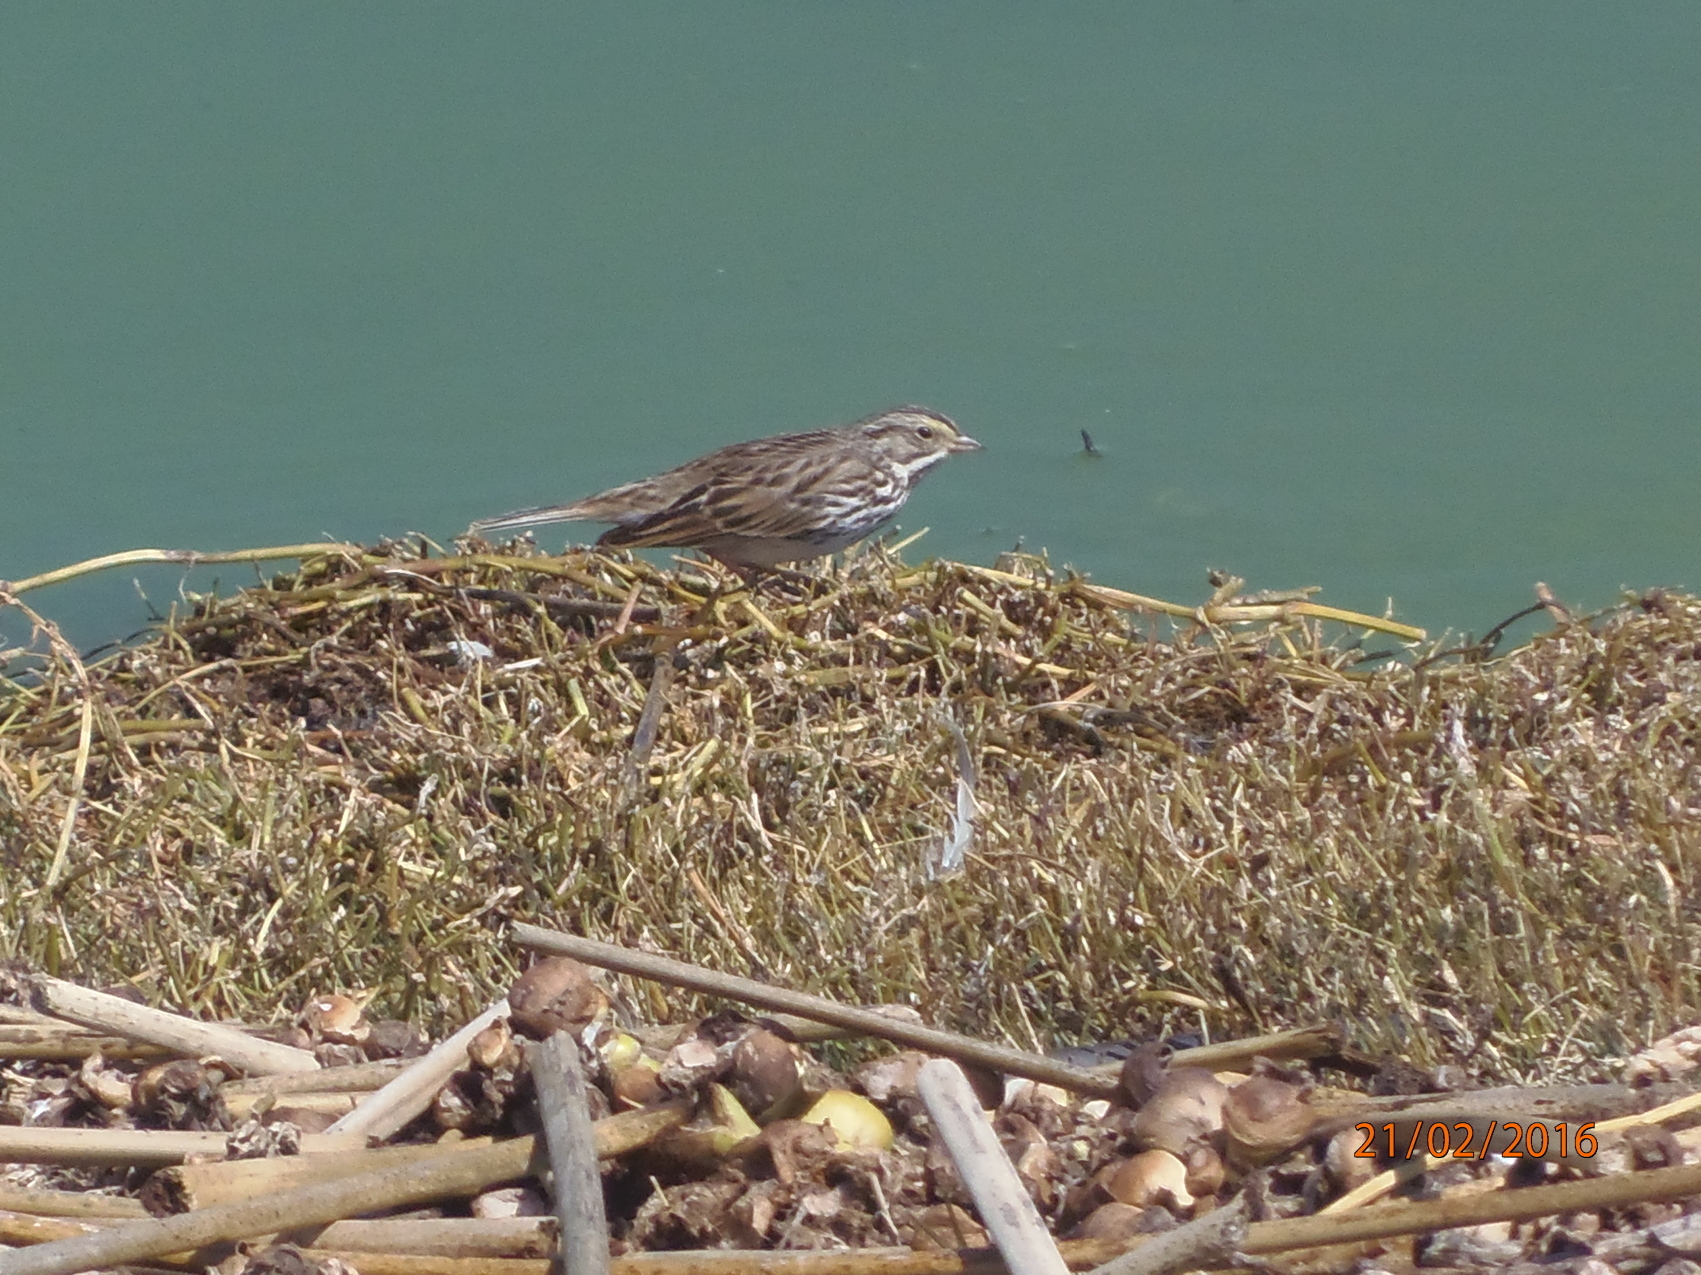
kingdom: Animalia
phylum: Chordata
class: Aves
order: Passeriformes
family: Passerellidae
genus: Passerculus
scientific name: Passerculus sandwichensis
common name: Savannah sparrow
